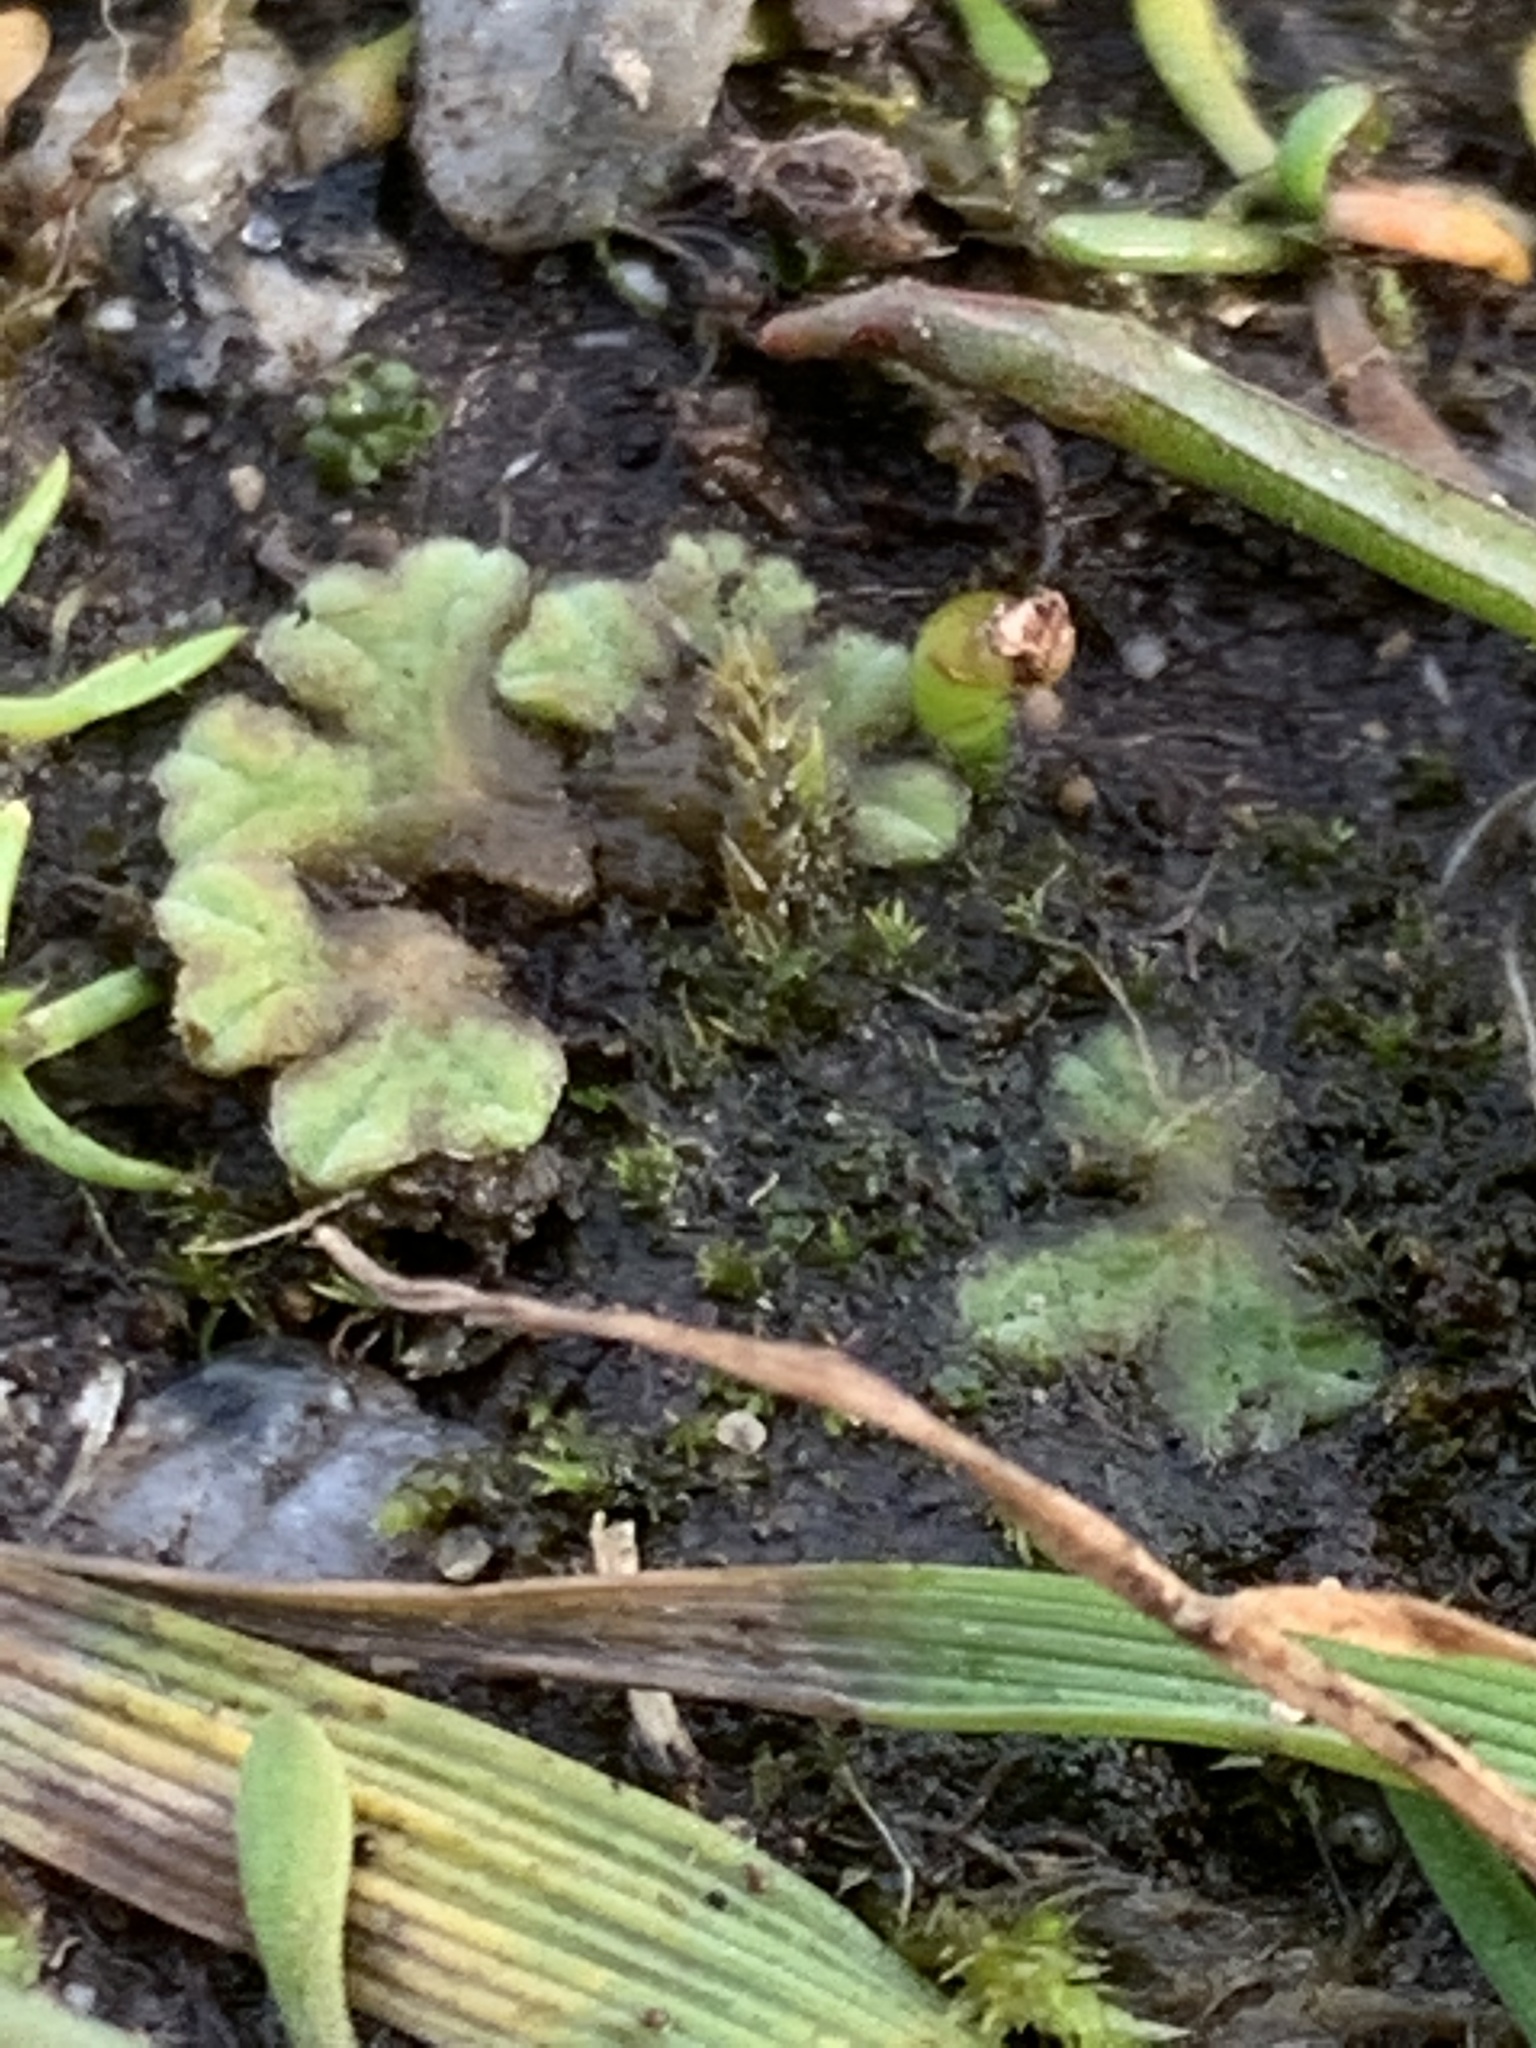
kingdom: Plantae
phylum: Marchantiophyta
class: Marchantiopsida
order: Marchantiales
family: Ricciaceae
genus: Riccia
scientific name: Riccia sorocarpa
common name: Common crystalwort
